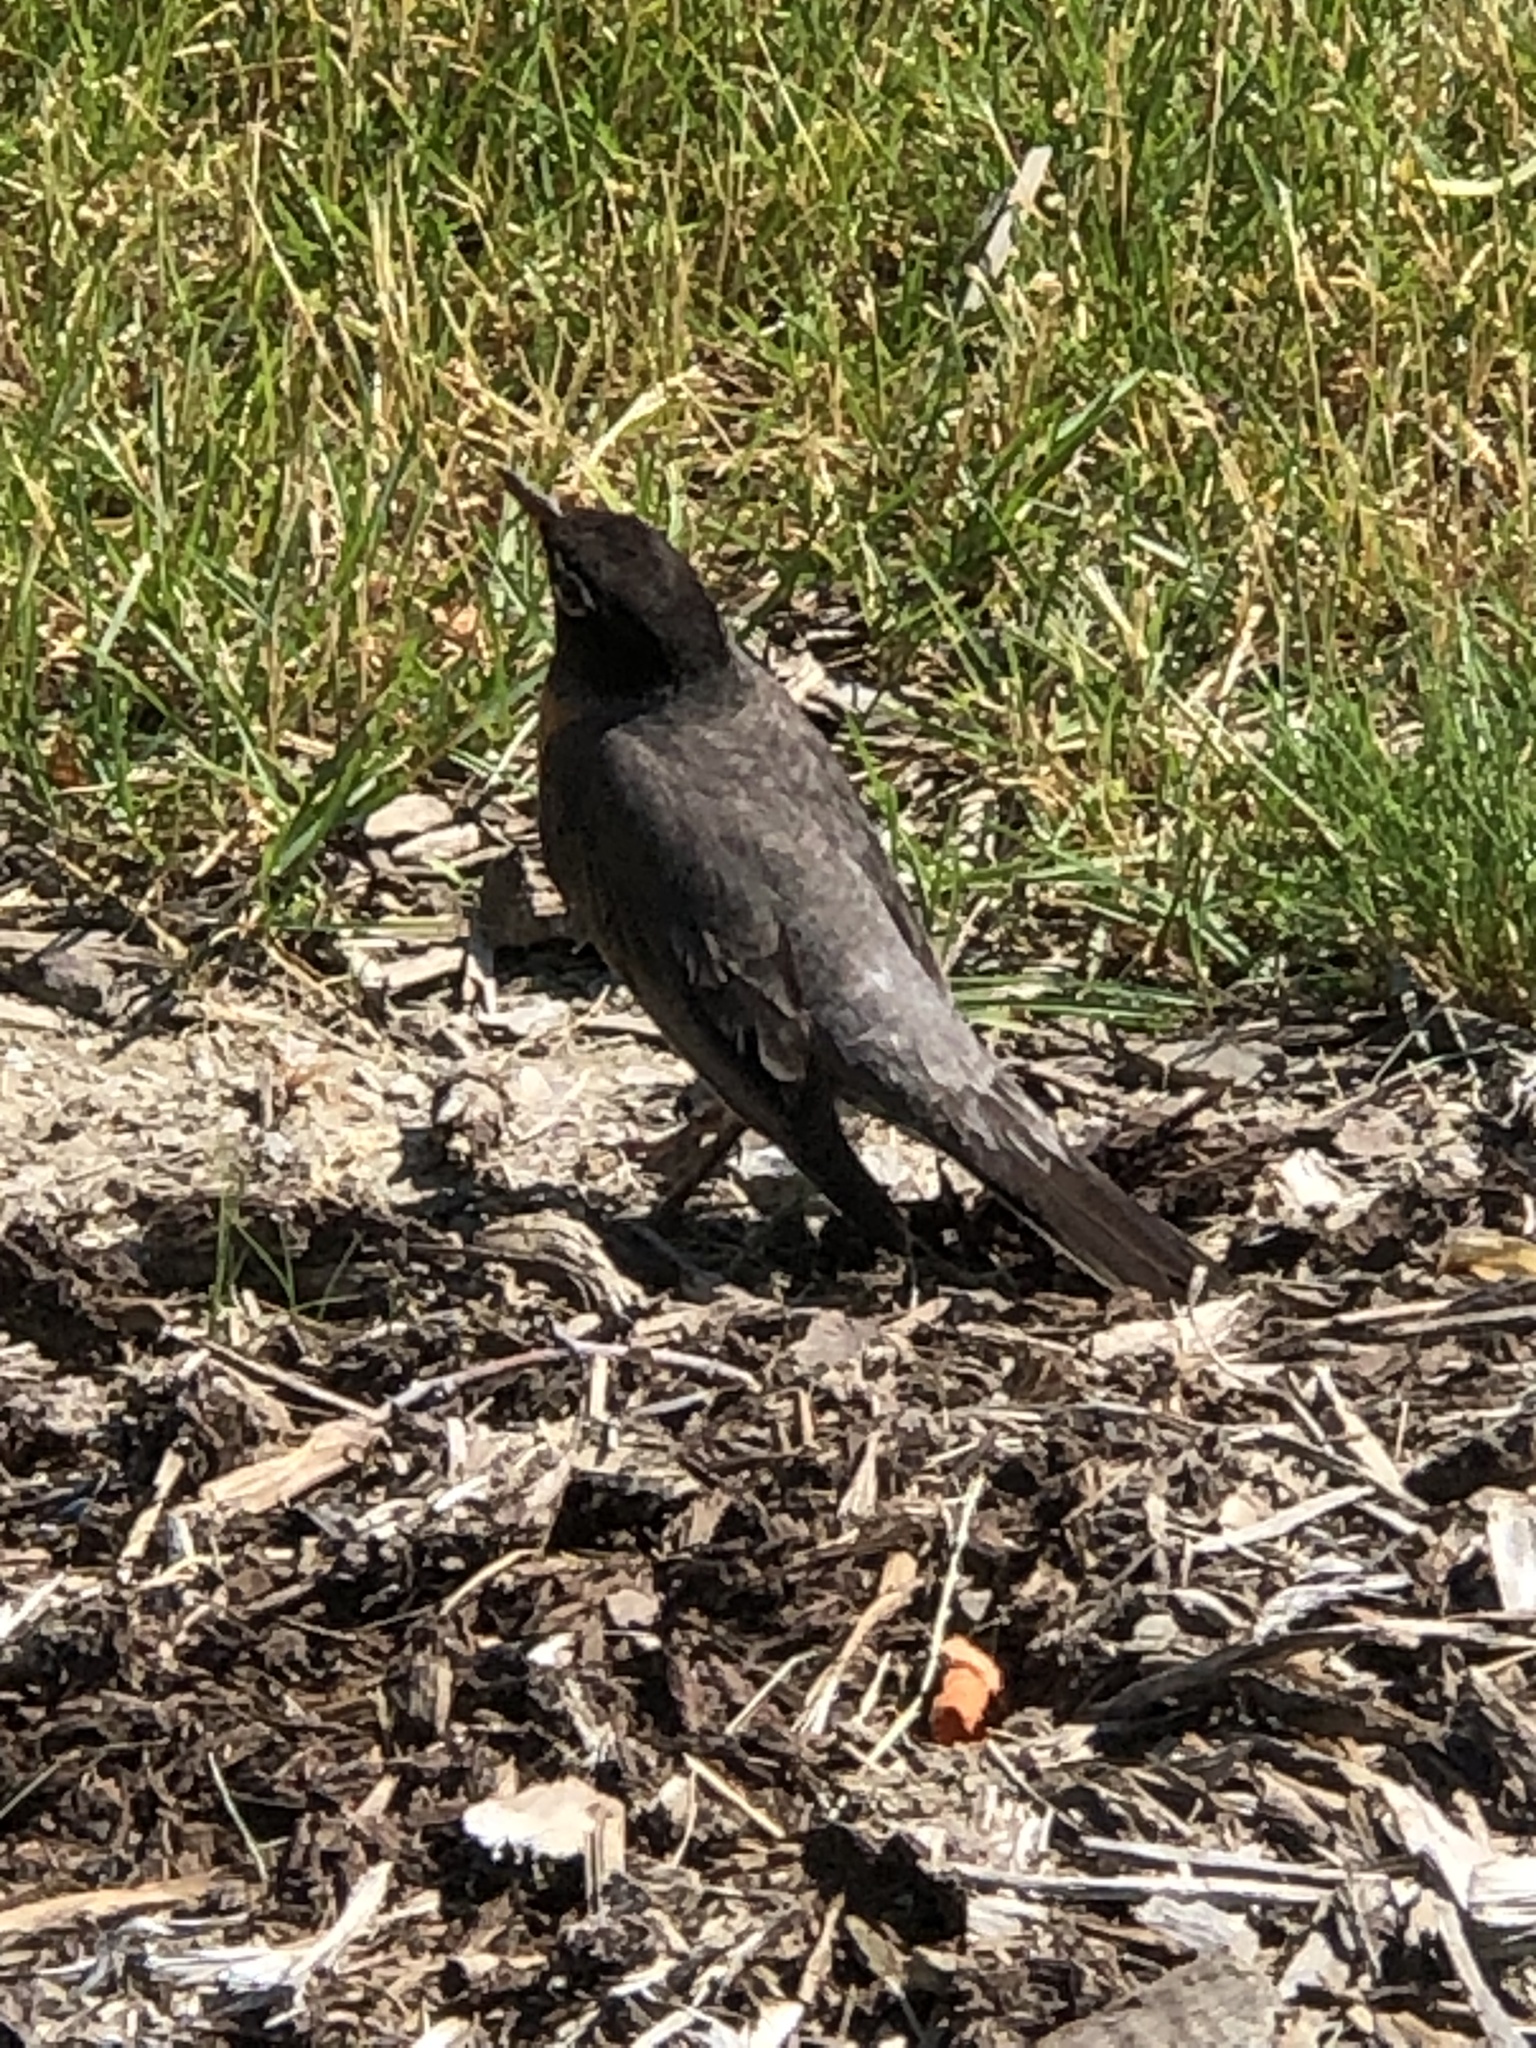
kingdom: Animalia
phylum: Chordata
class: Aves
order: Passeriformes
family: Turdidae
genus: Turdus
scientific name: Turdus migratorius
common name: American robin
